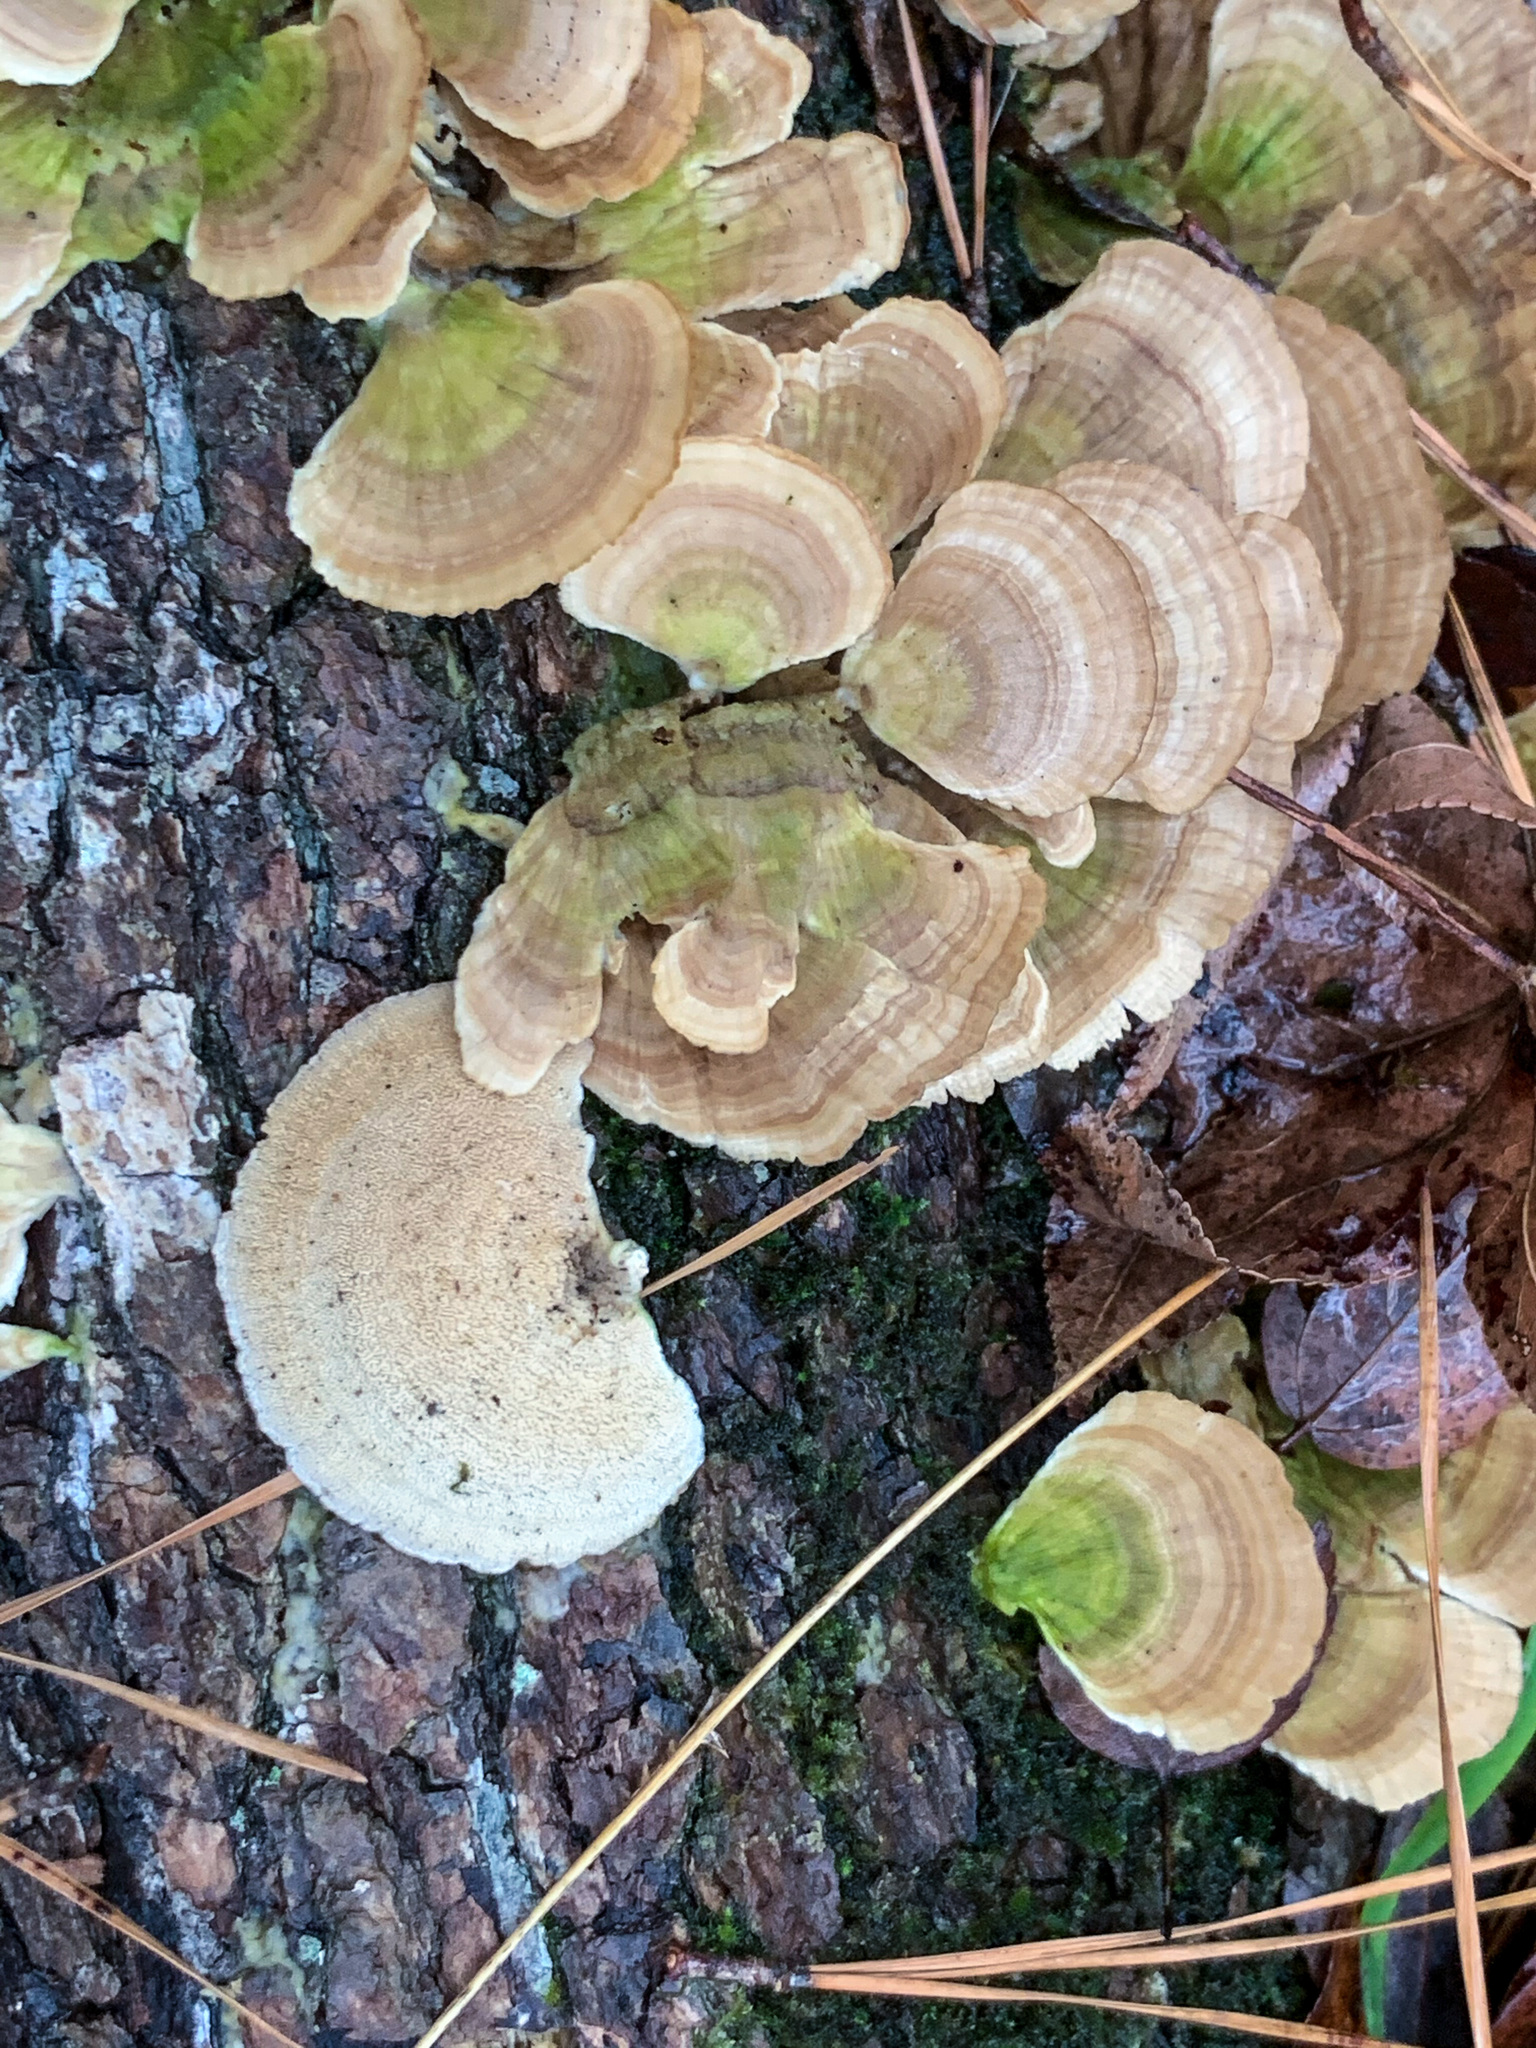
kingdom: Fungi
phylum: Basidiomycota
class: Agaricomycetes
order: Hymenochaetales
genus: Trichaptum
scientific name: Trichaptum abietinum
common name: Purplepore bracket
